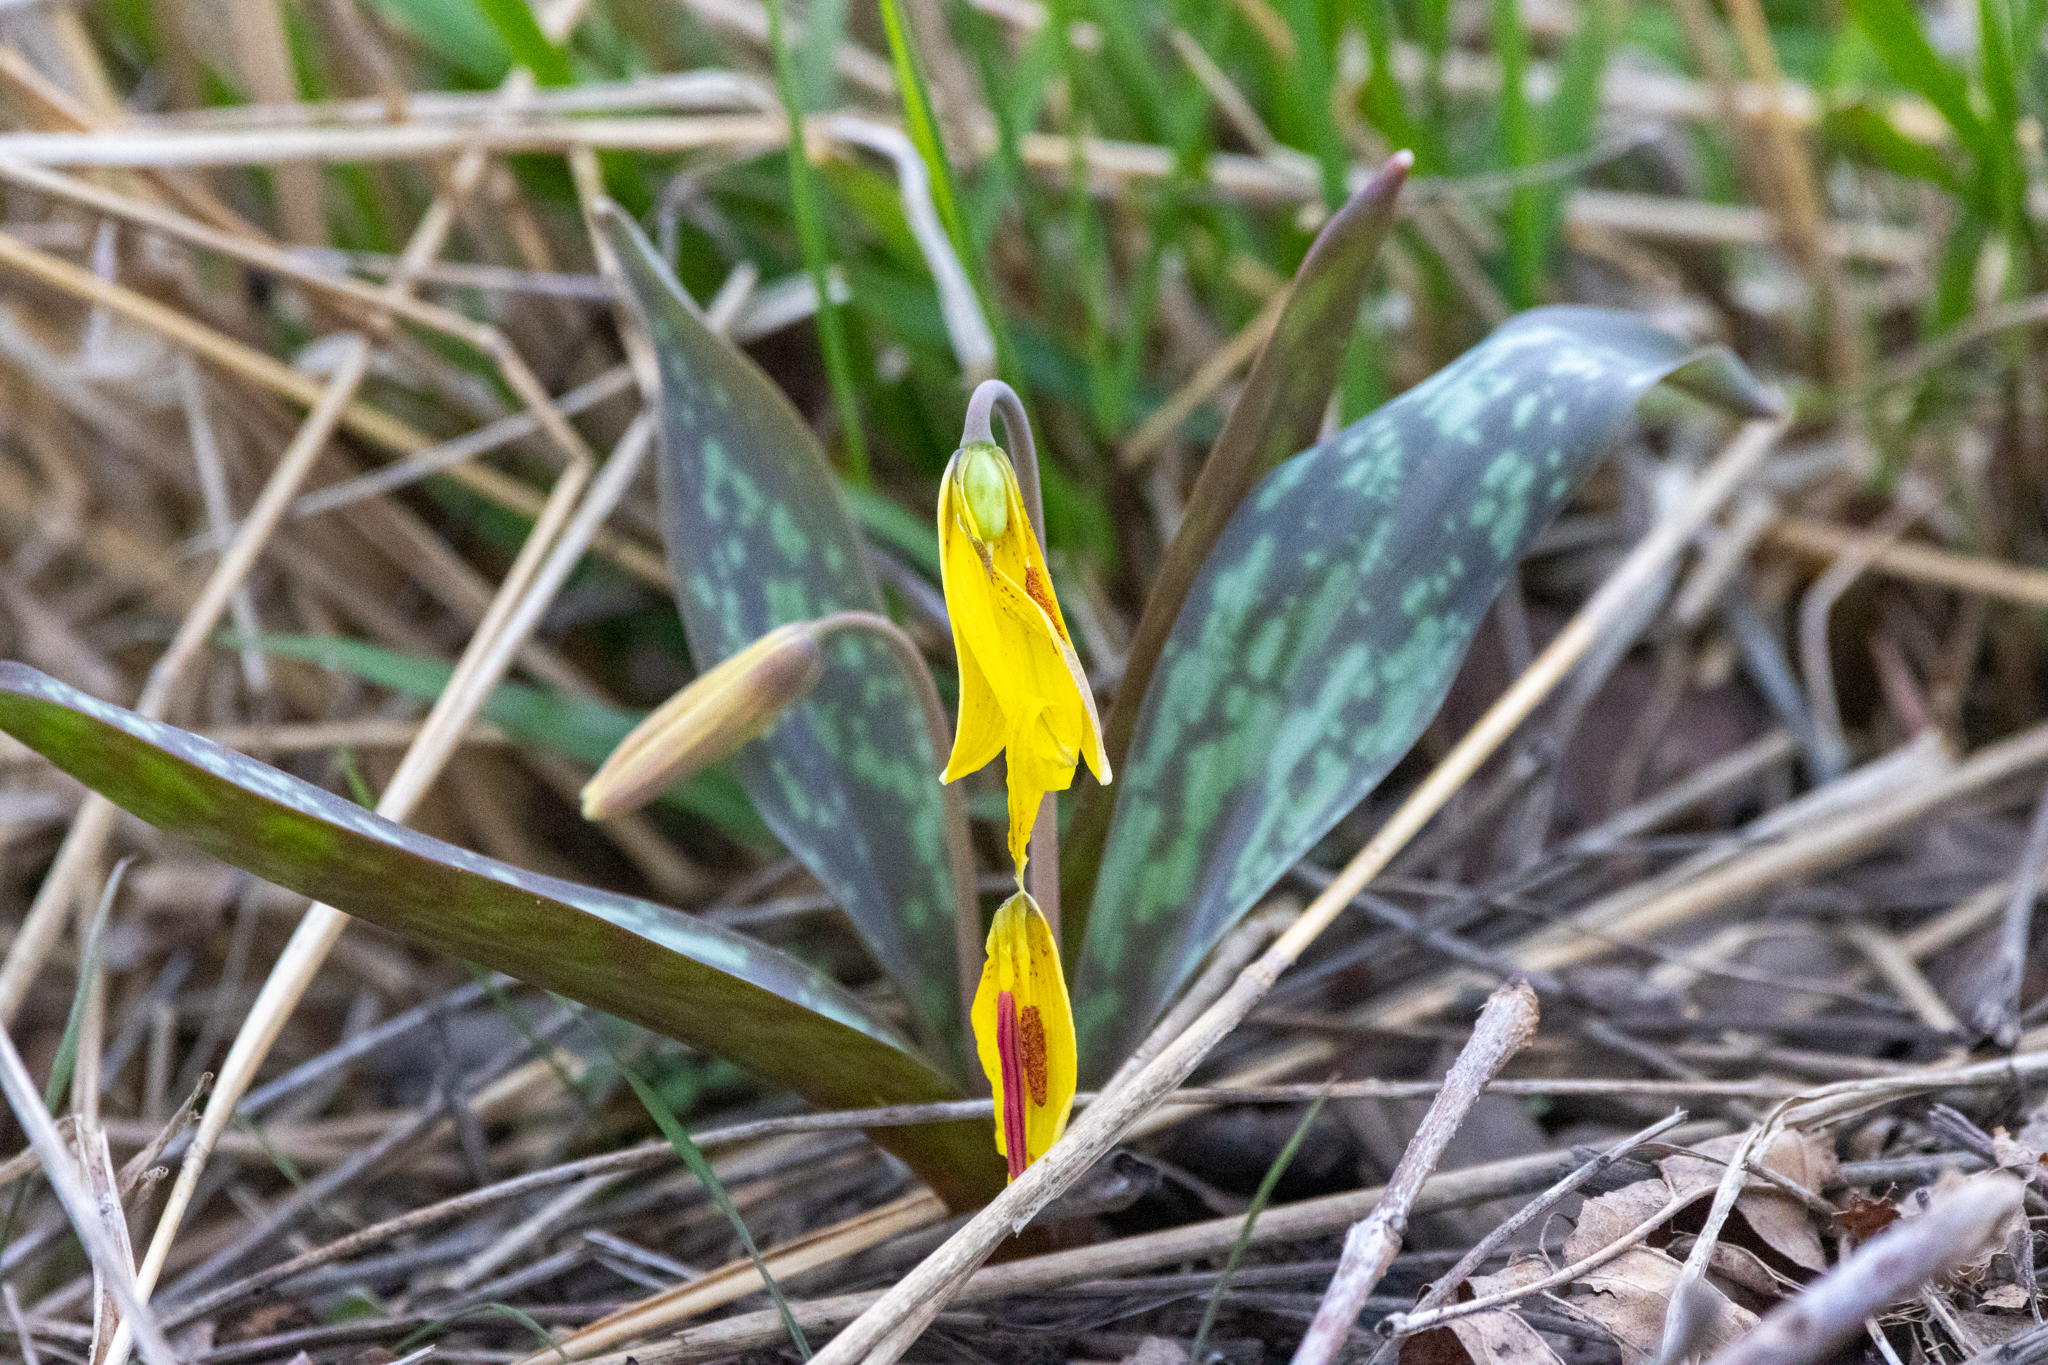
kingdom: Plantae
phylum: Tracheophyta
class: Liliopsida
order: Liliales
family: Liliaceae
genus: Erythronium
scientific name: Erythronium americanum
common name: Yellow adder's-tongue
